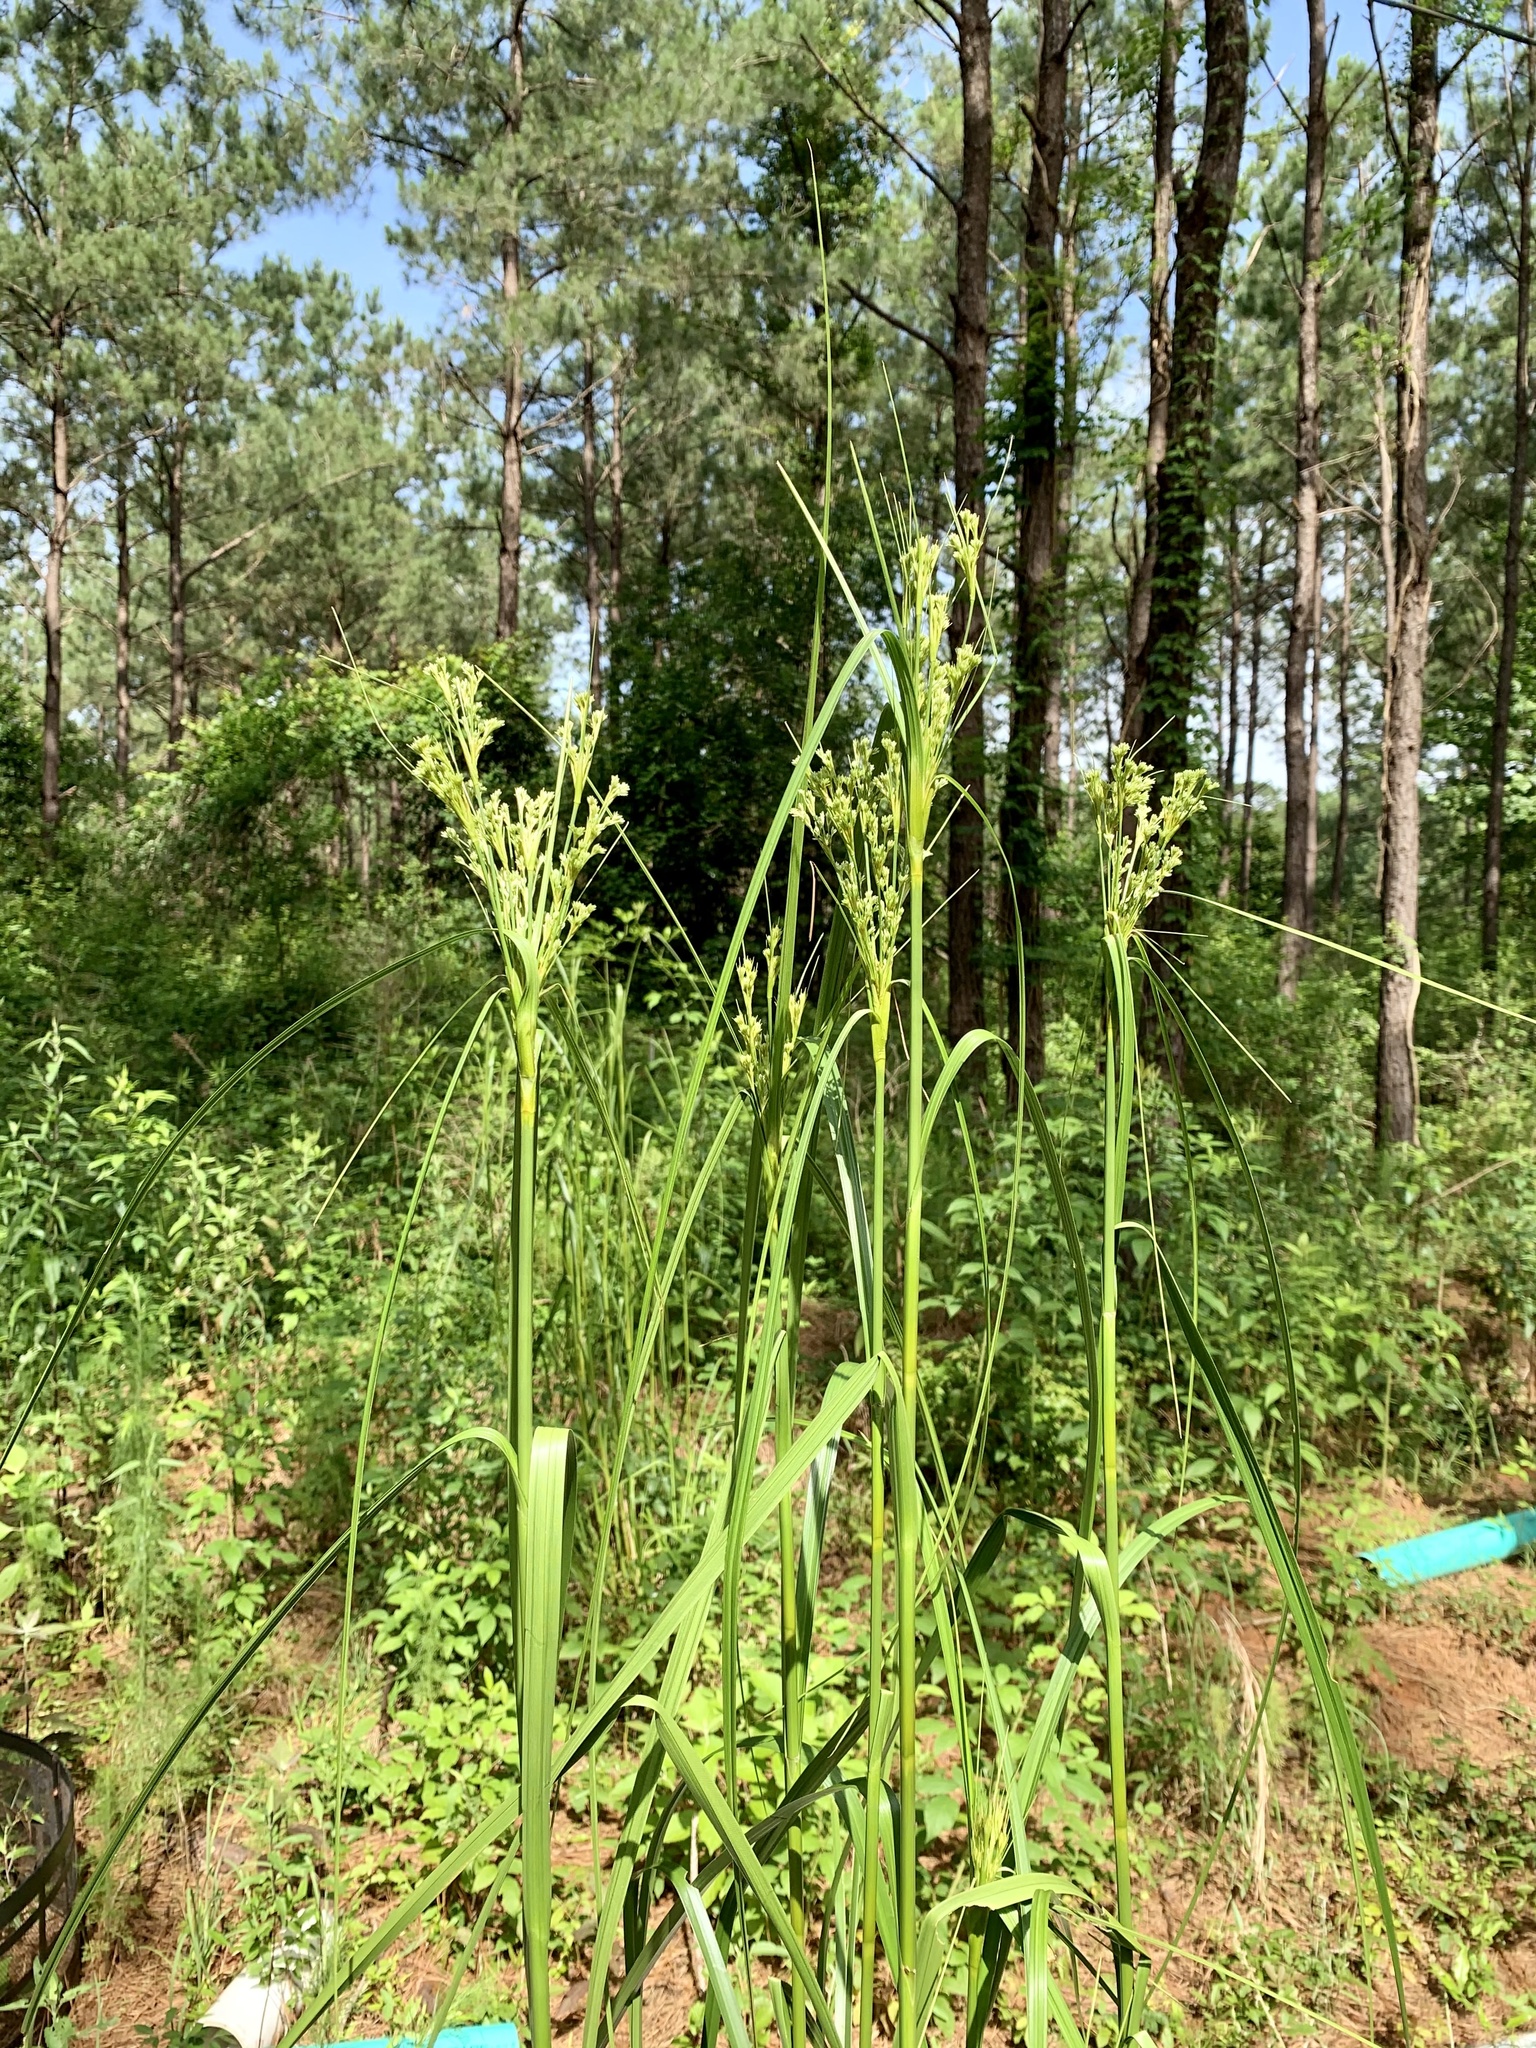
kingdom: Plantae
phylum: Tracheophyta
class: Liliopsida
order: Poales
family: Cyperaceae
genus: Scirpus
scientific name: Scirpus cyperinus
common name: Black-sheathed bulrush
